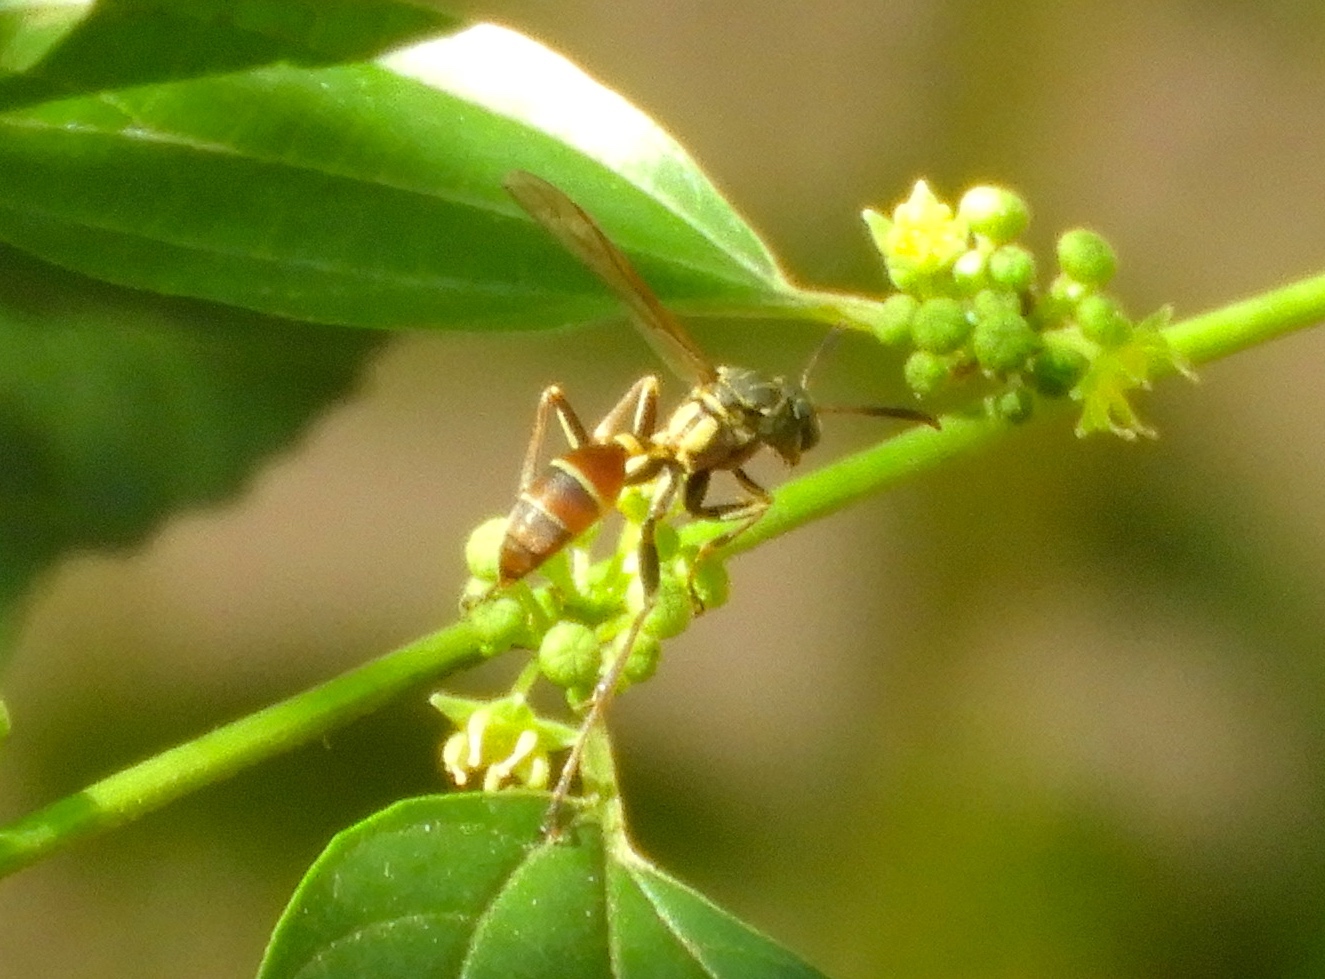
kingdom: Animalia
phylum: Arthropoda
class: Insecta
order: Hymenoptera
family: Vespidae
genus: Mischocyttarus
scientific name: Mischocyttarus mexicanus
